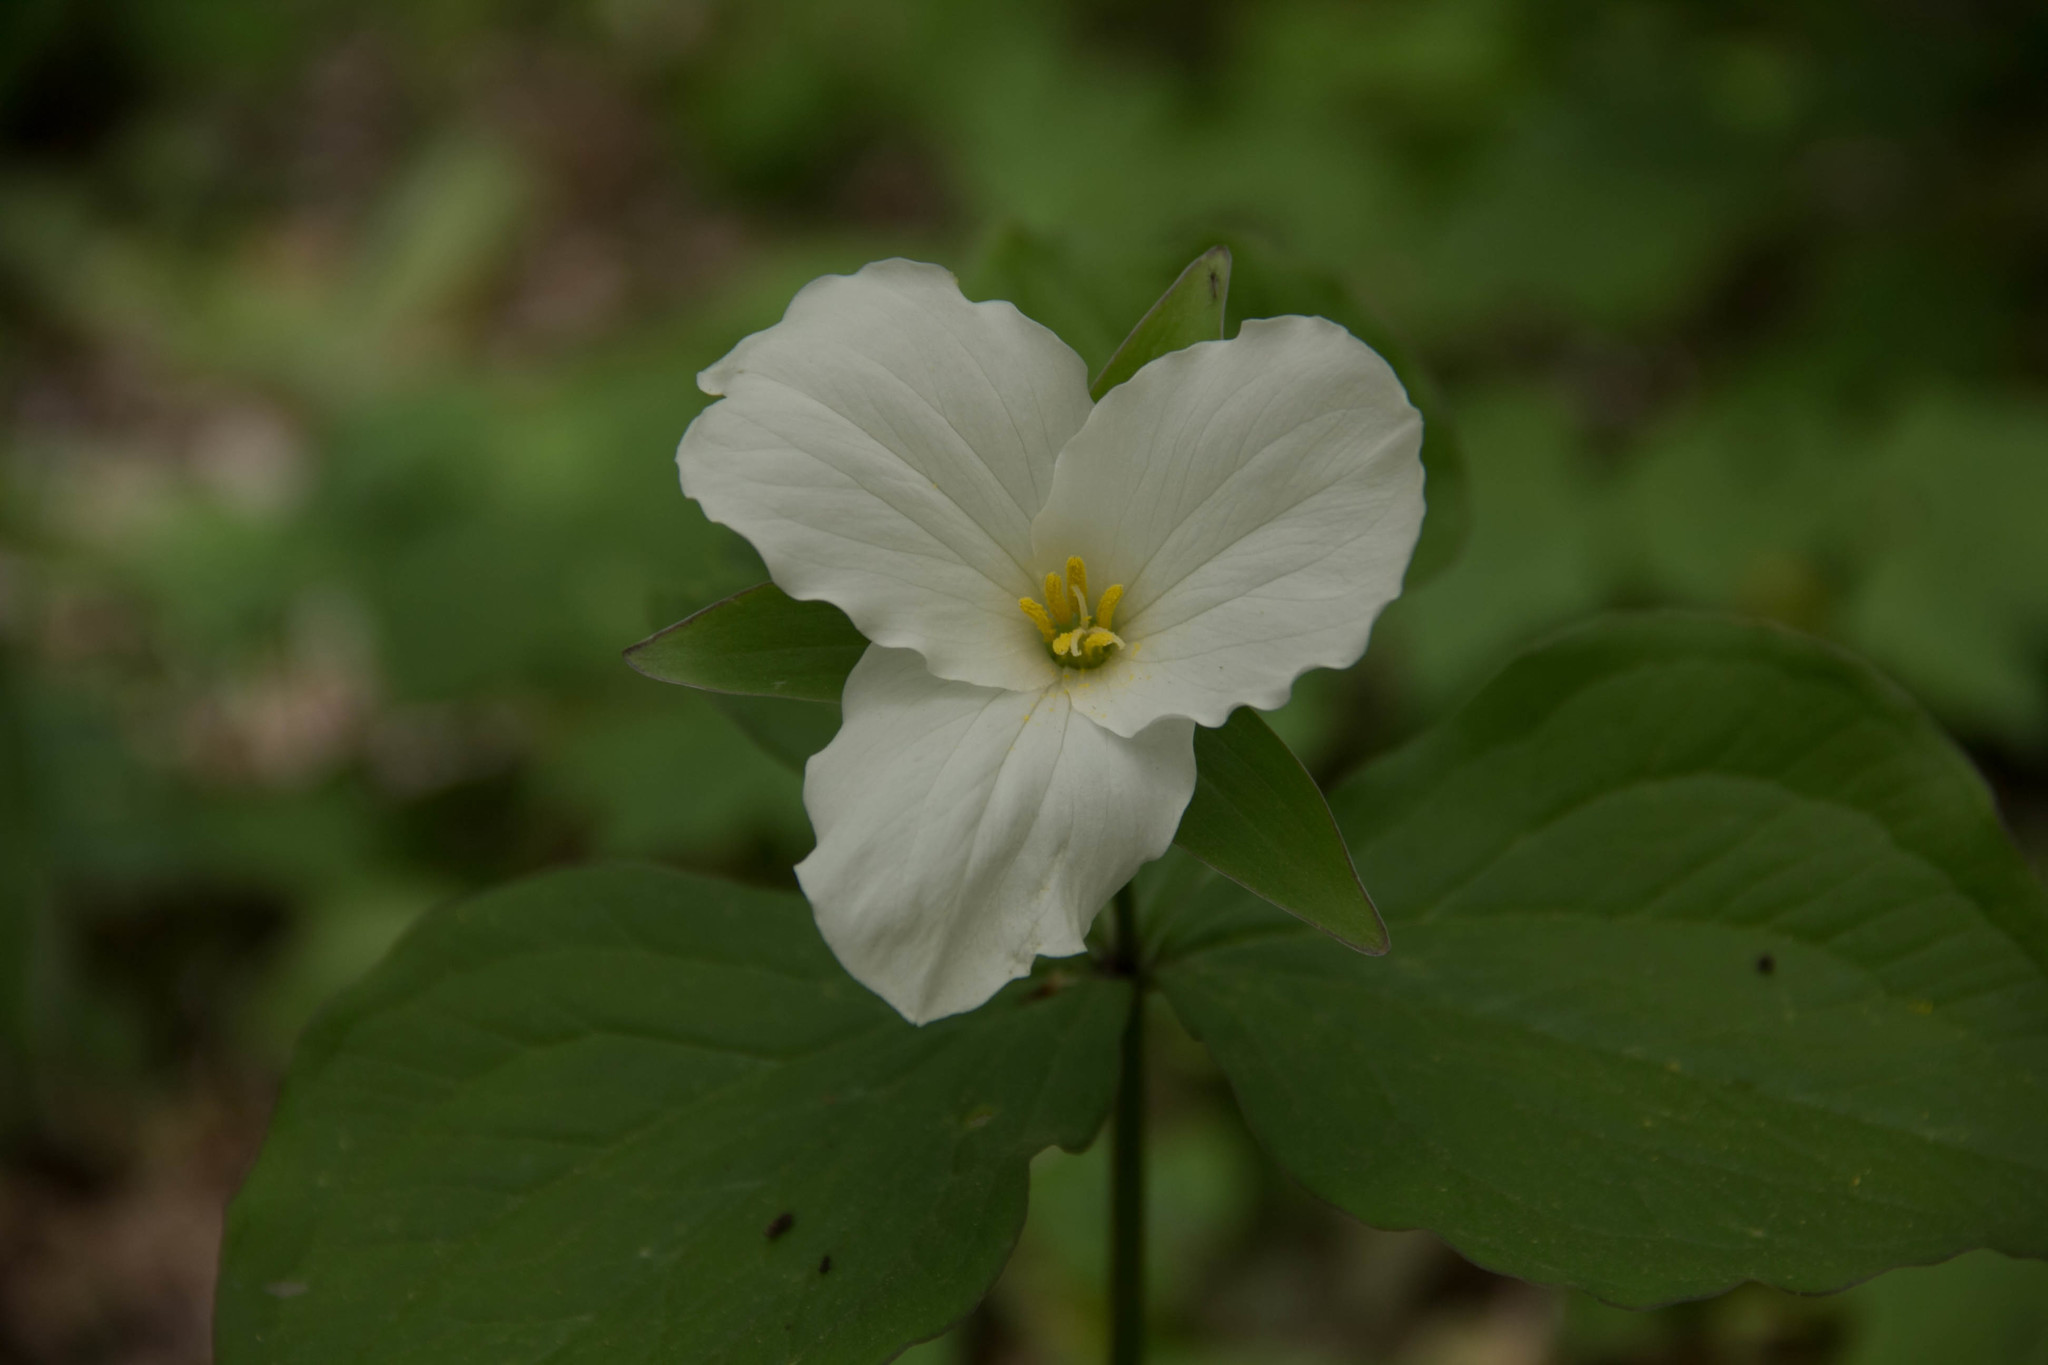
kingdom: Plantae
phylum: Tracheophyta
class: Liliopsida
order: Liliales
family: Melanthiaceae
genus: Trillium
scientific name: Trillium grandiflorum
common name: Great white trillium
